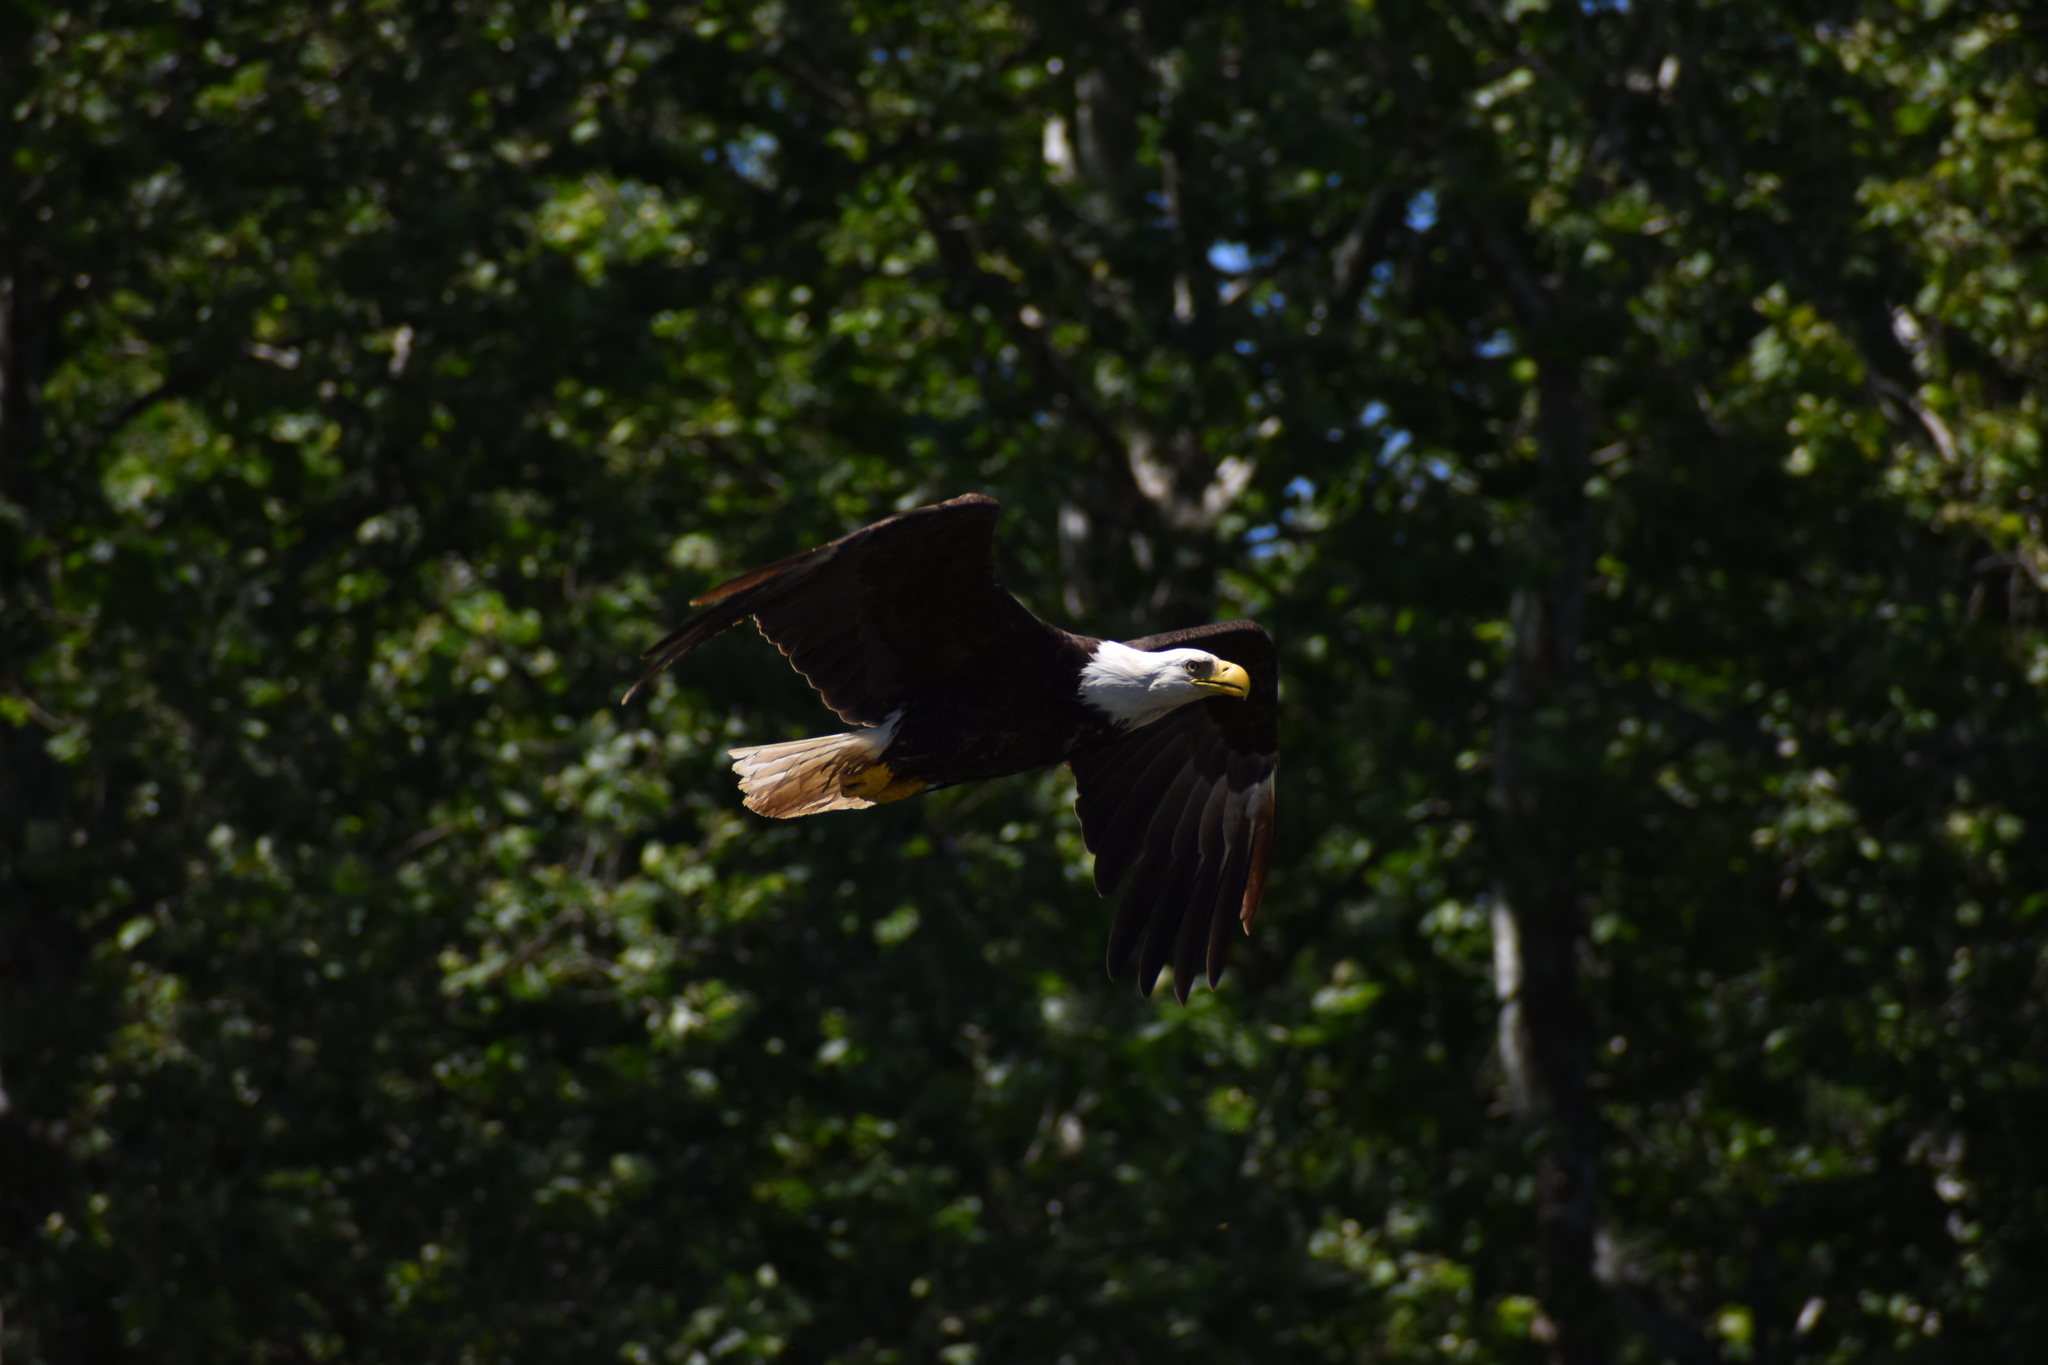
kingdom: Animalia
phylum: Chordata
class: Aves
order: Accipitriformes
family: Accipitridae
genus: Haliaeetus
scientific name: Haliaeetus leucocephalus
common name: Bald eagle
